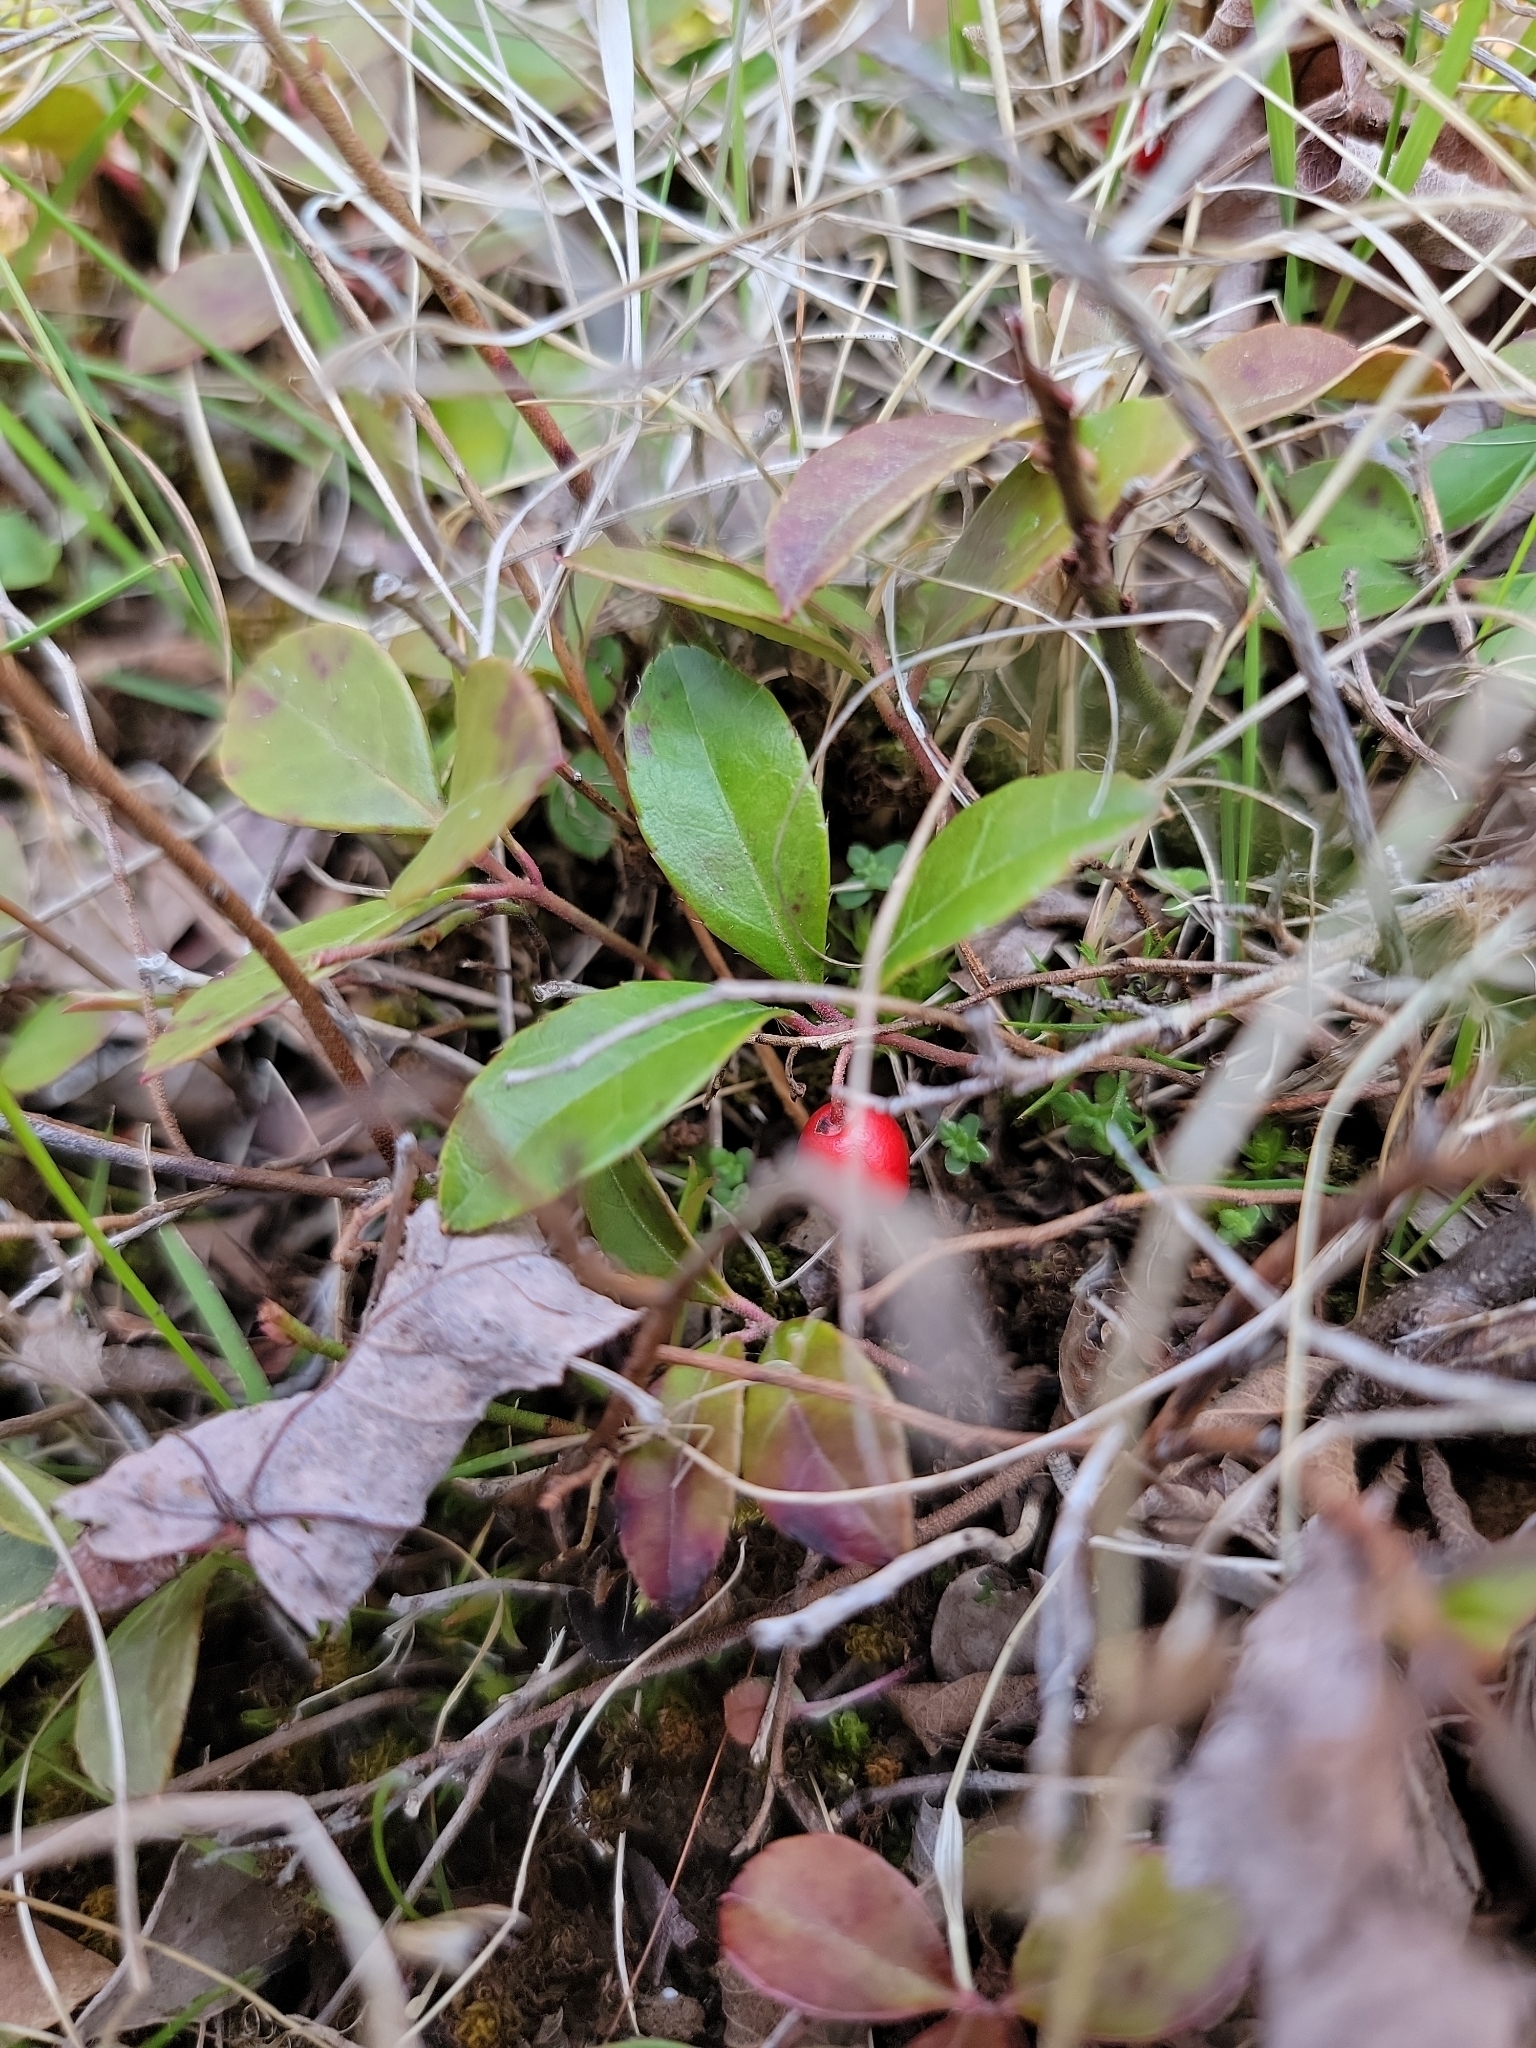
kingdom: Plantae
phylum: Tracheophyta
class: Magnoliopsida
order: Ericales
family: Ericaceae
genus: Gaultheria
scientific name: Gaultheria procumbens
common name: Checkerberry
